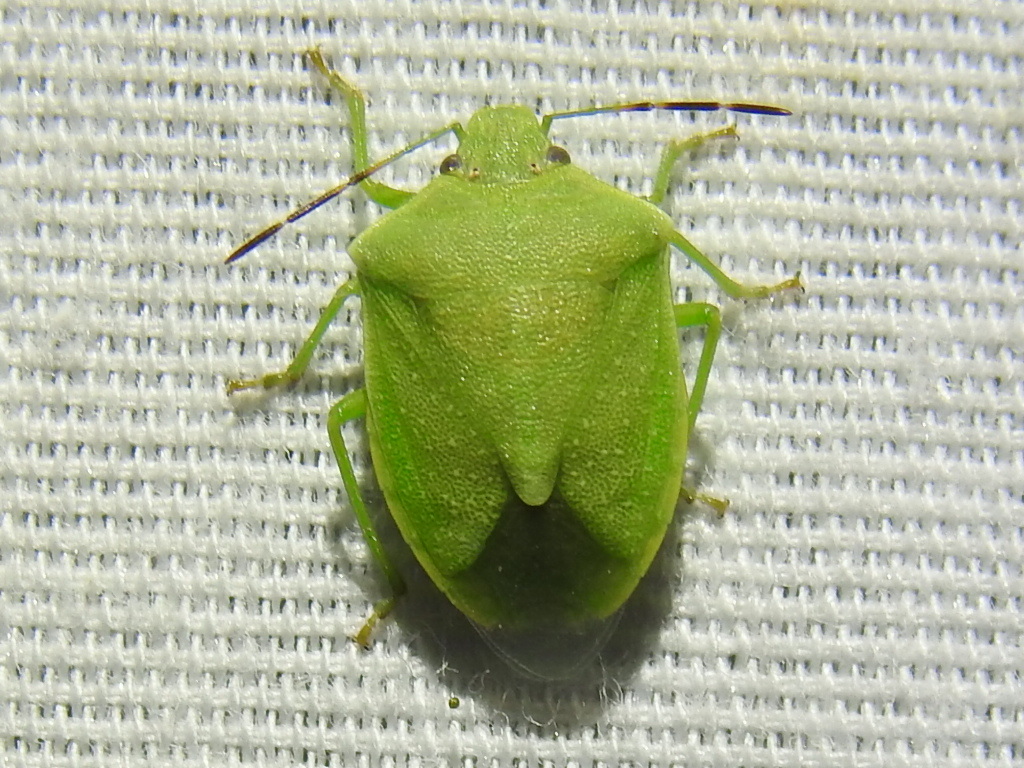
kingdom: Animalia
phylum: Arthropoda
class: Insecta
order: Hemiptera
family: Pentatomidae
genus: Thyanta
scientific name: Thyanta accerra
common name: Stink bug
